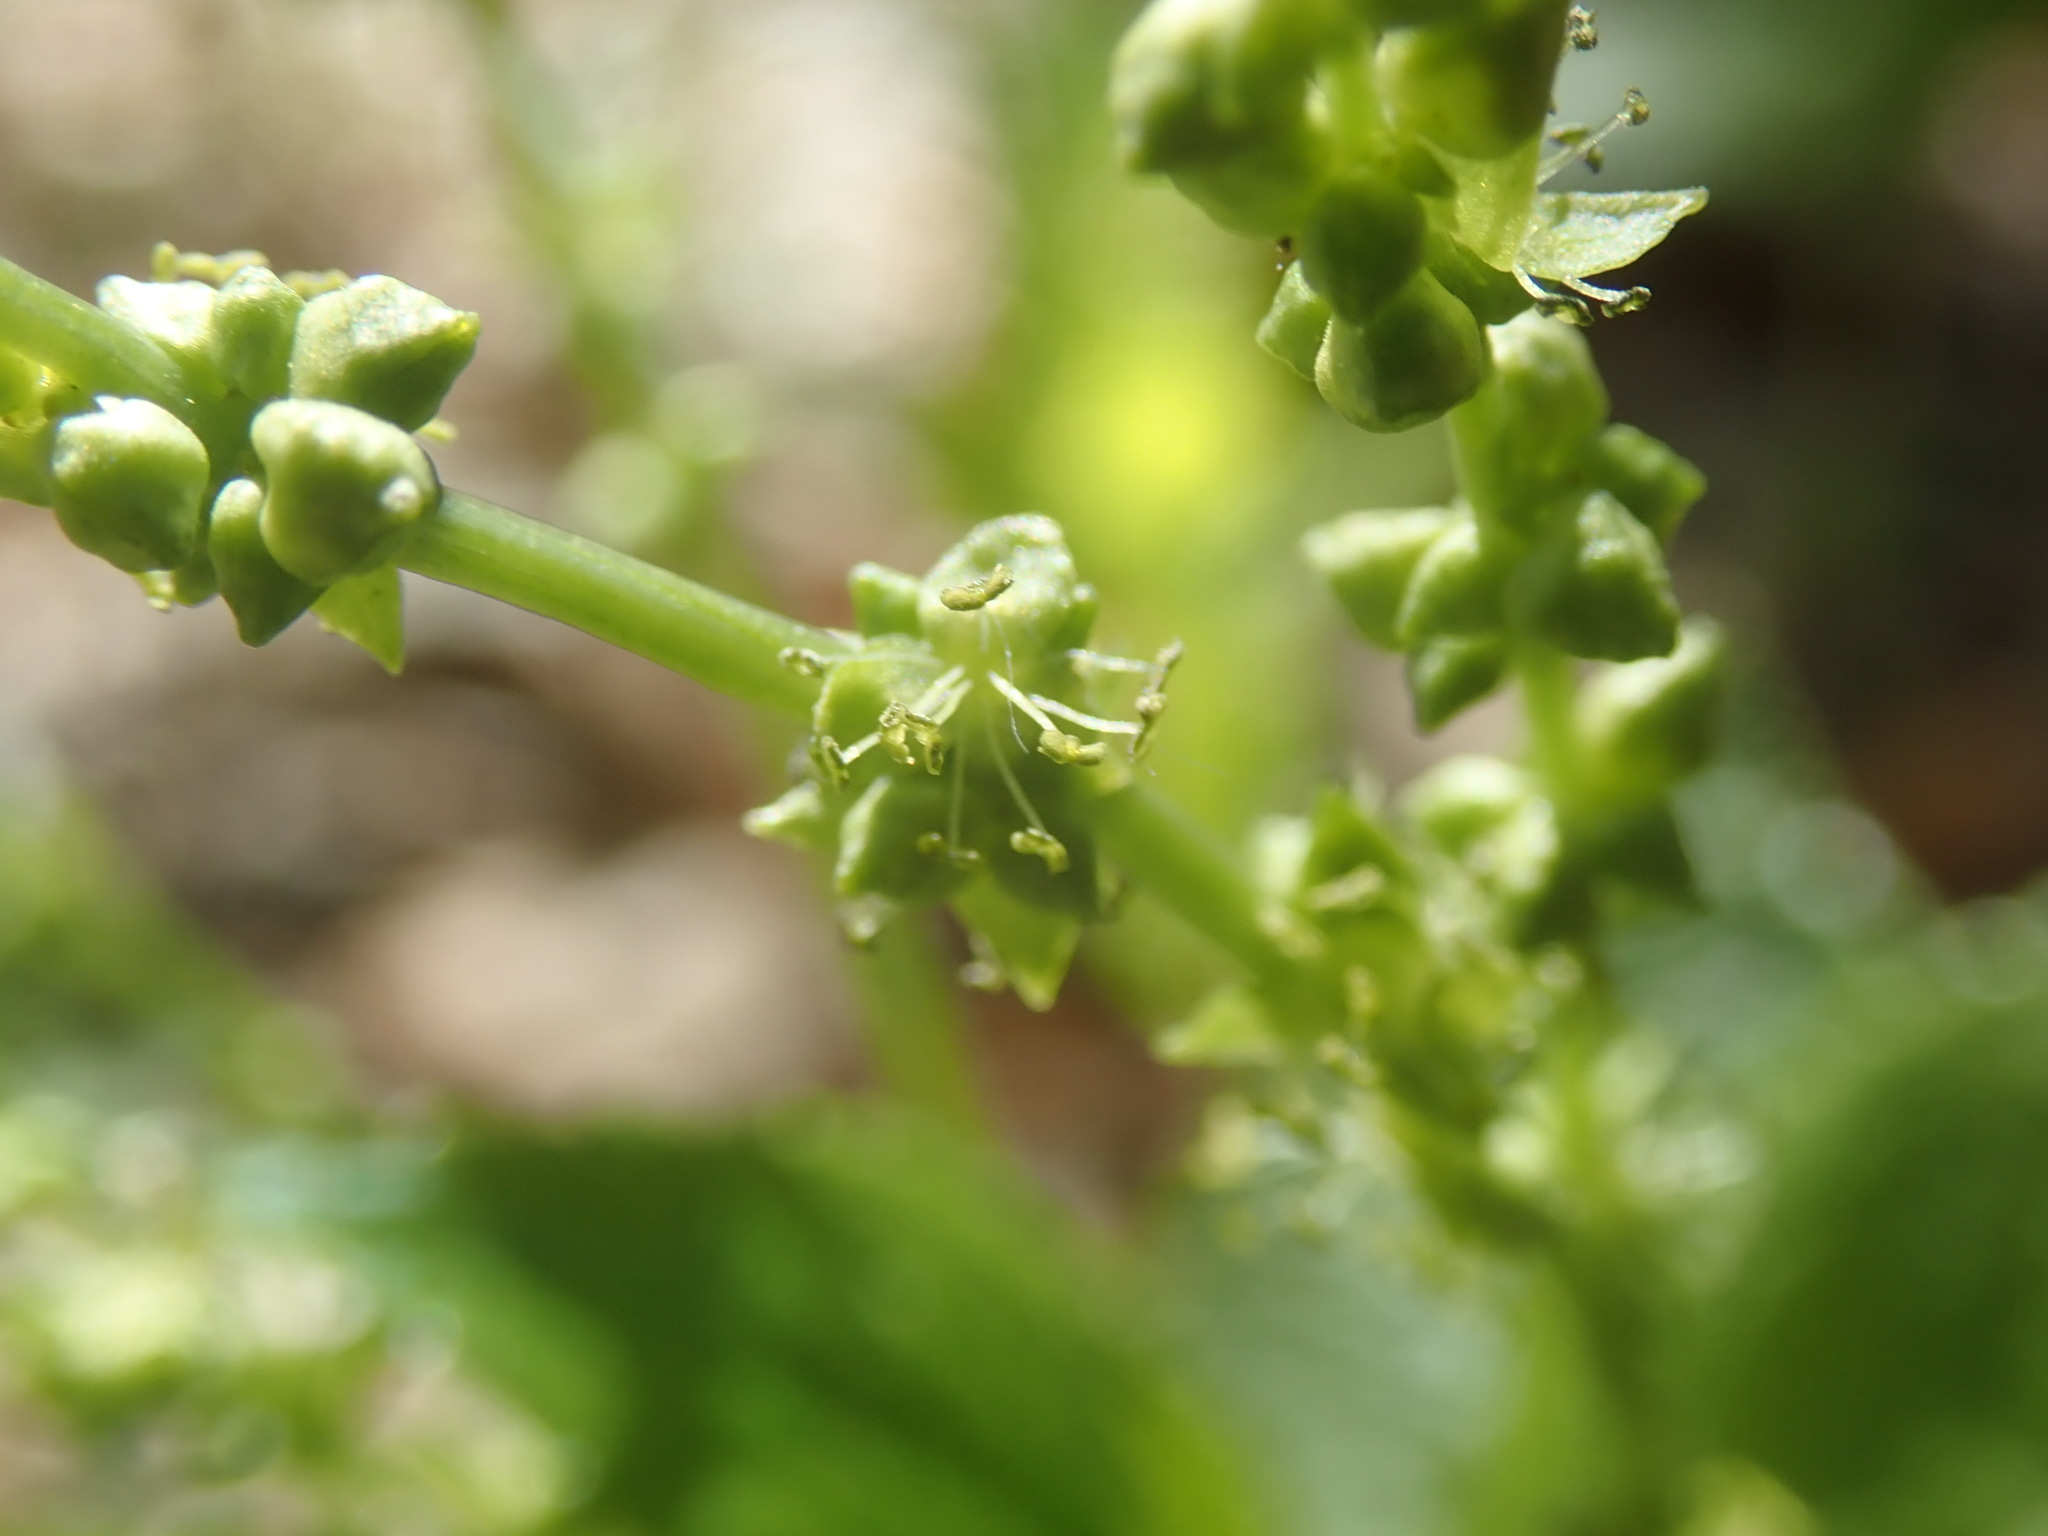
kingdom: Plantae
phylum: Tracheophyta
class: Magnoliopsida
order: Malpighiales
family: Euphorbiaceae
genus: Mercurialis
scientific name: Mercurialis perennis
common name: Dog mercury
